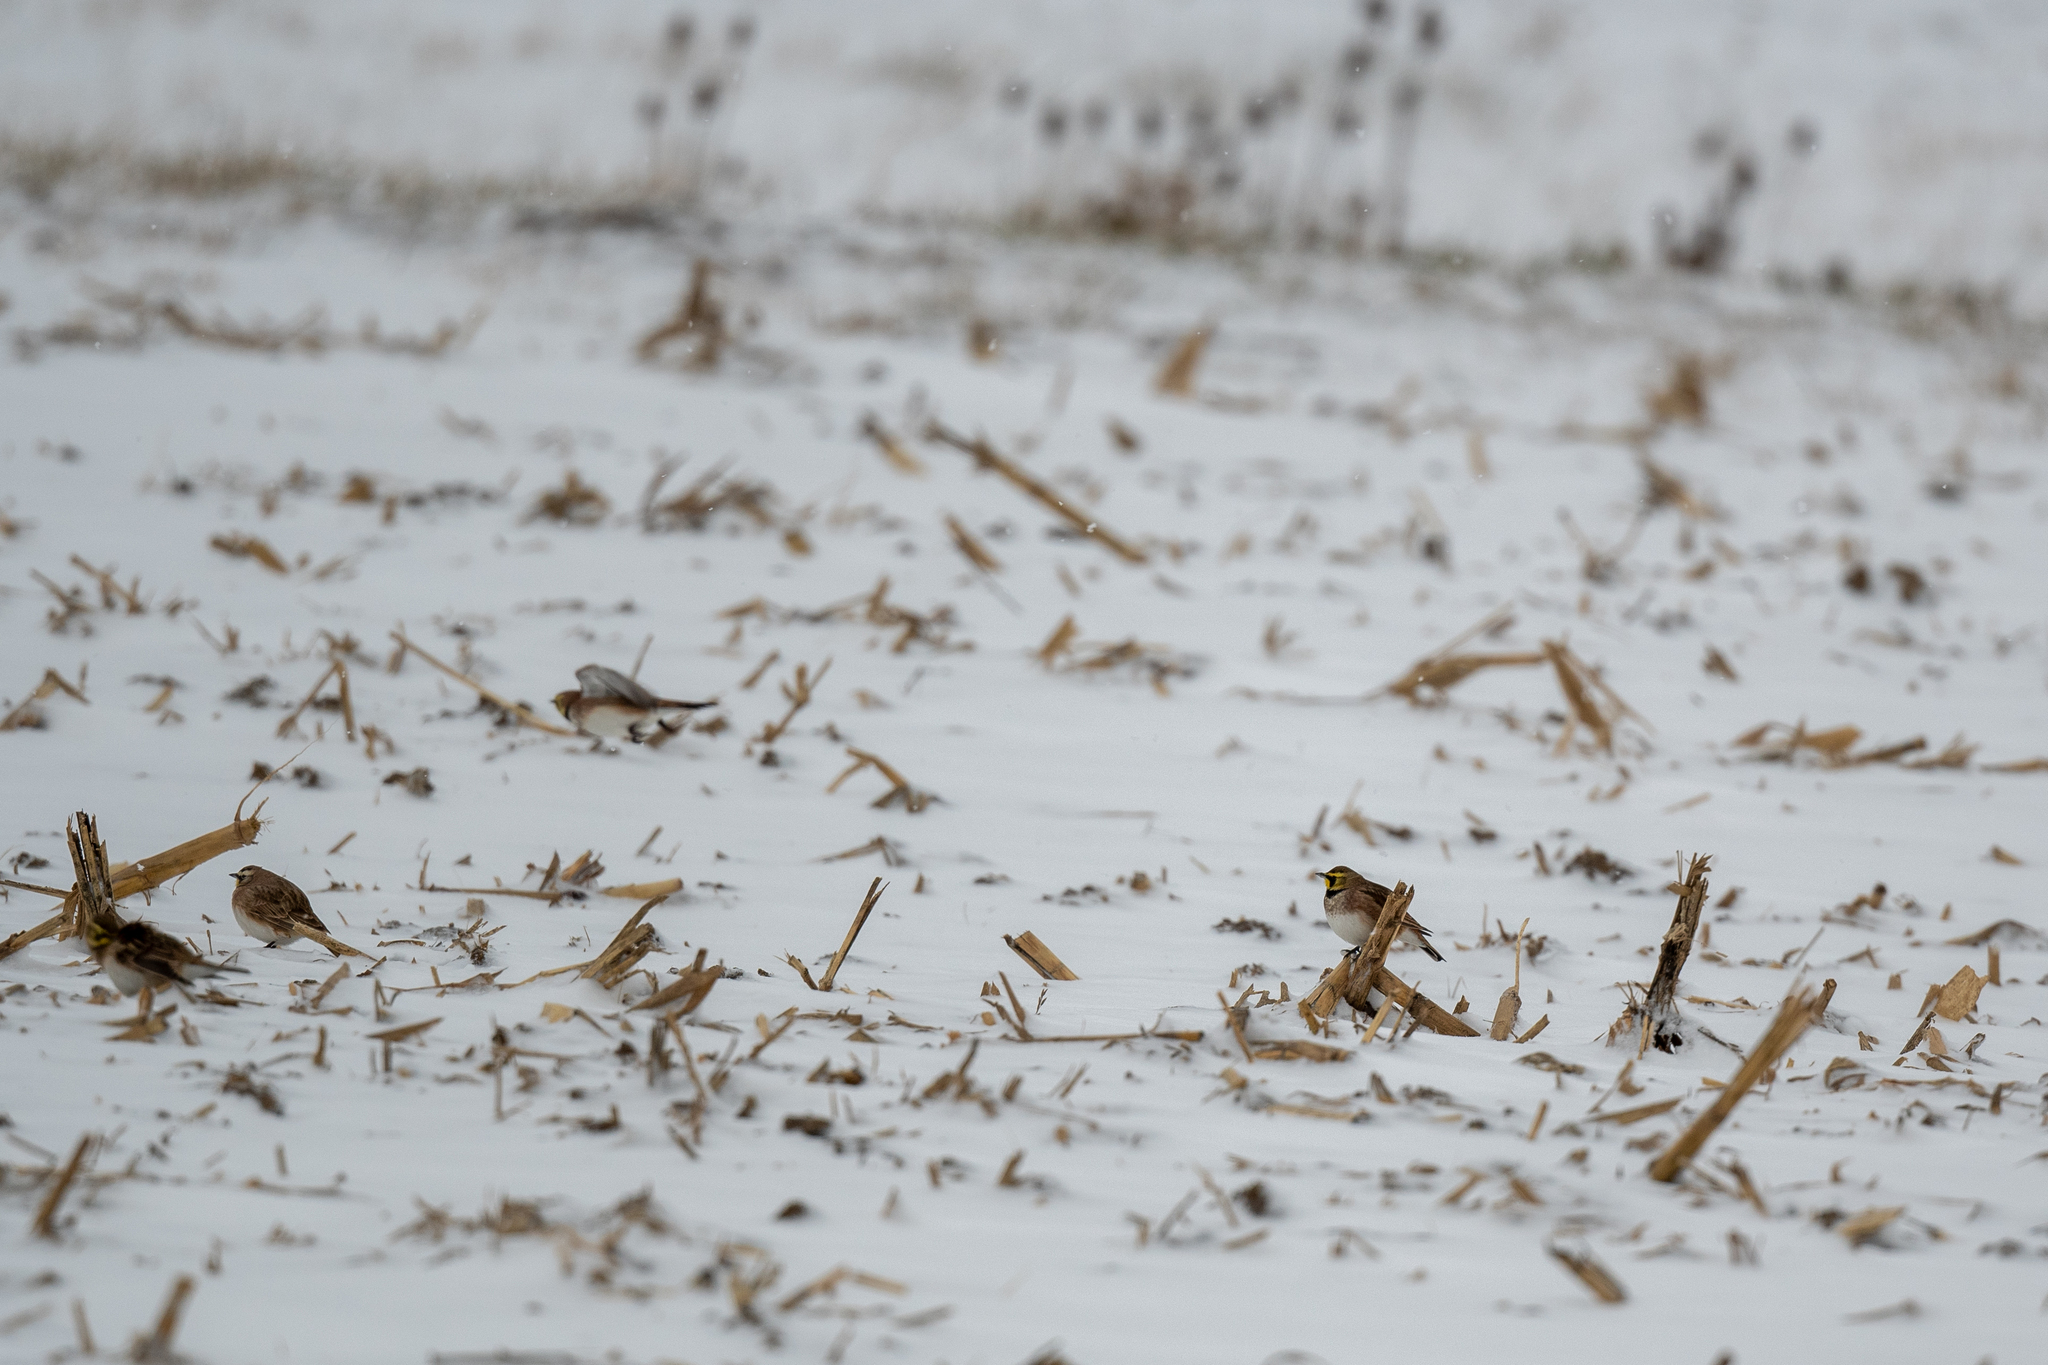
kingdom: Animalia
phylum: Chordata
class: Aves
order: Passeriformes
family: Alaudidae
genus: Eremophila
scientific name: Eremophila alpestris
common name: Horned lark
